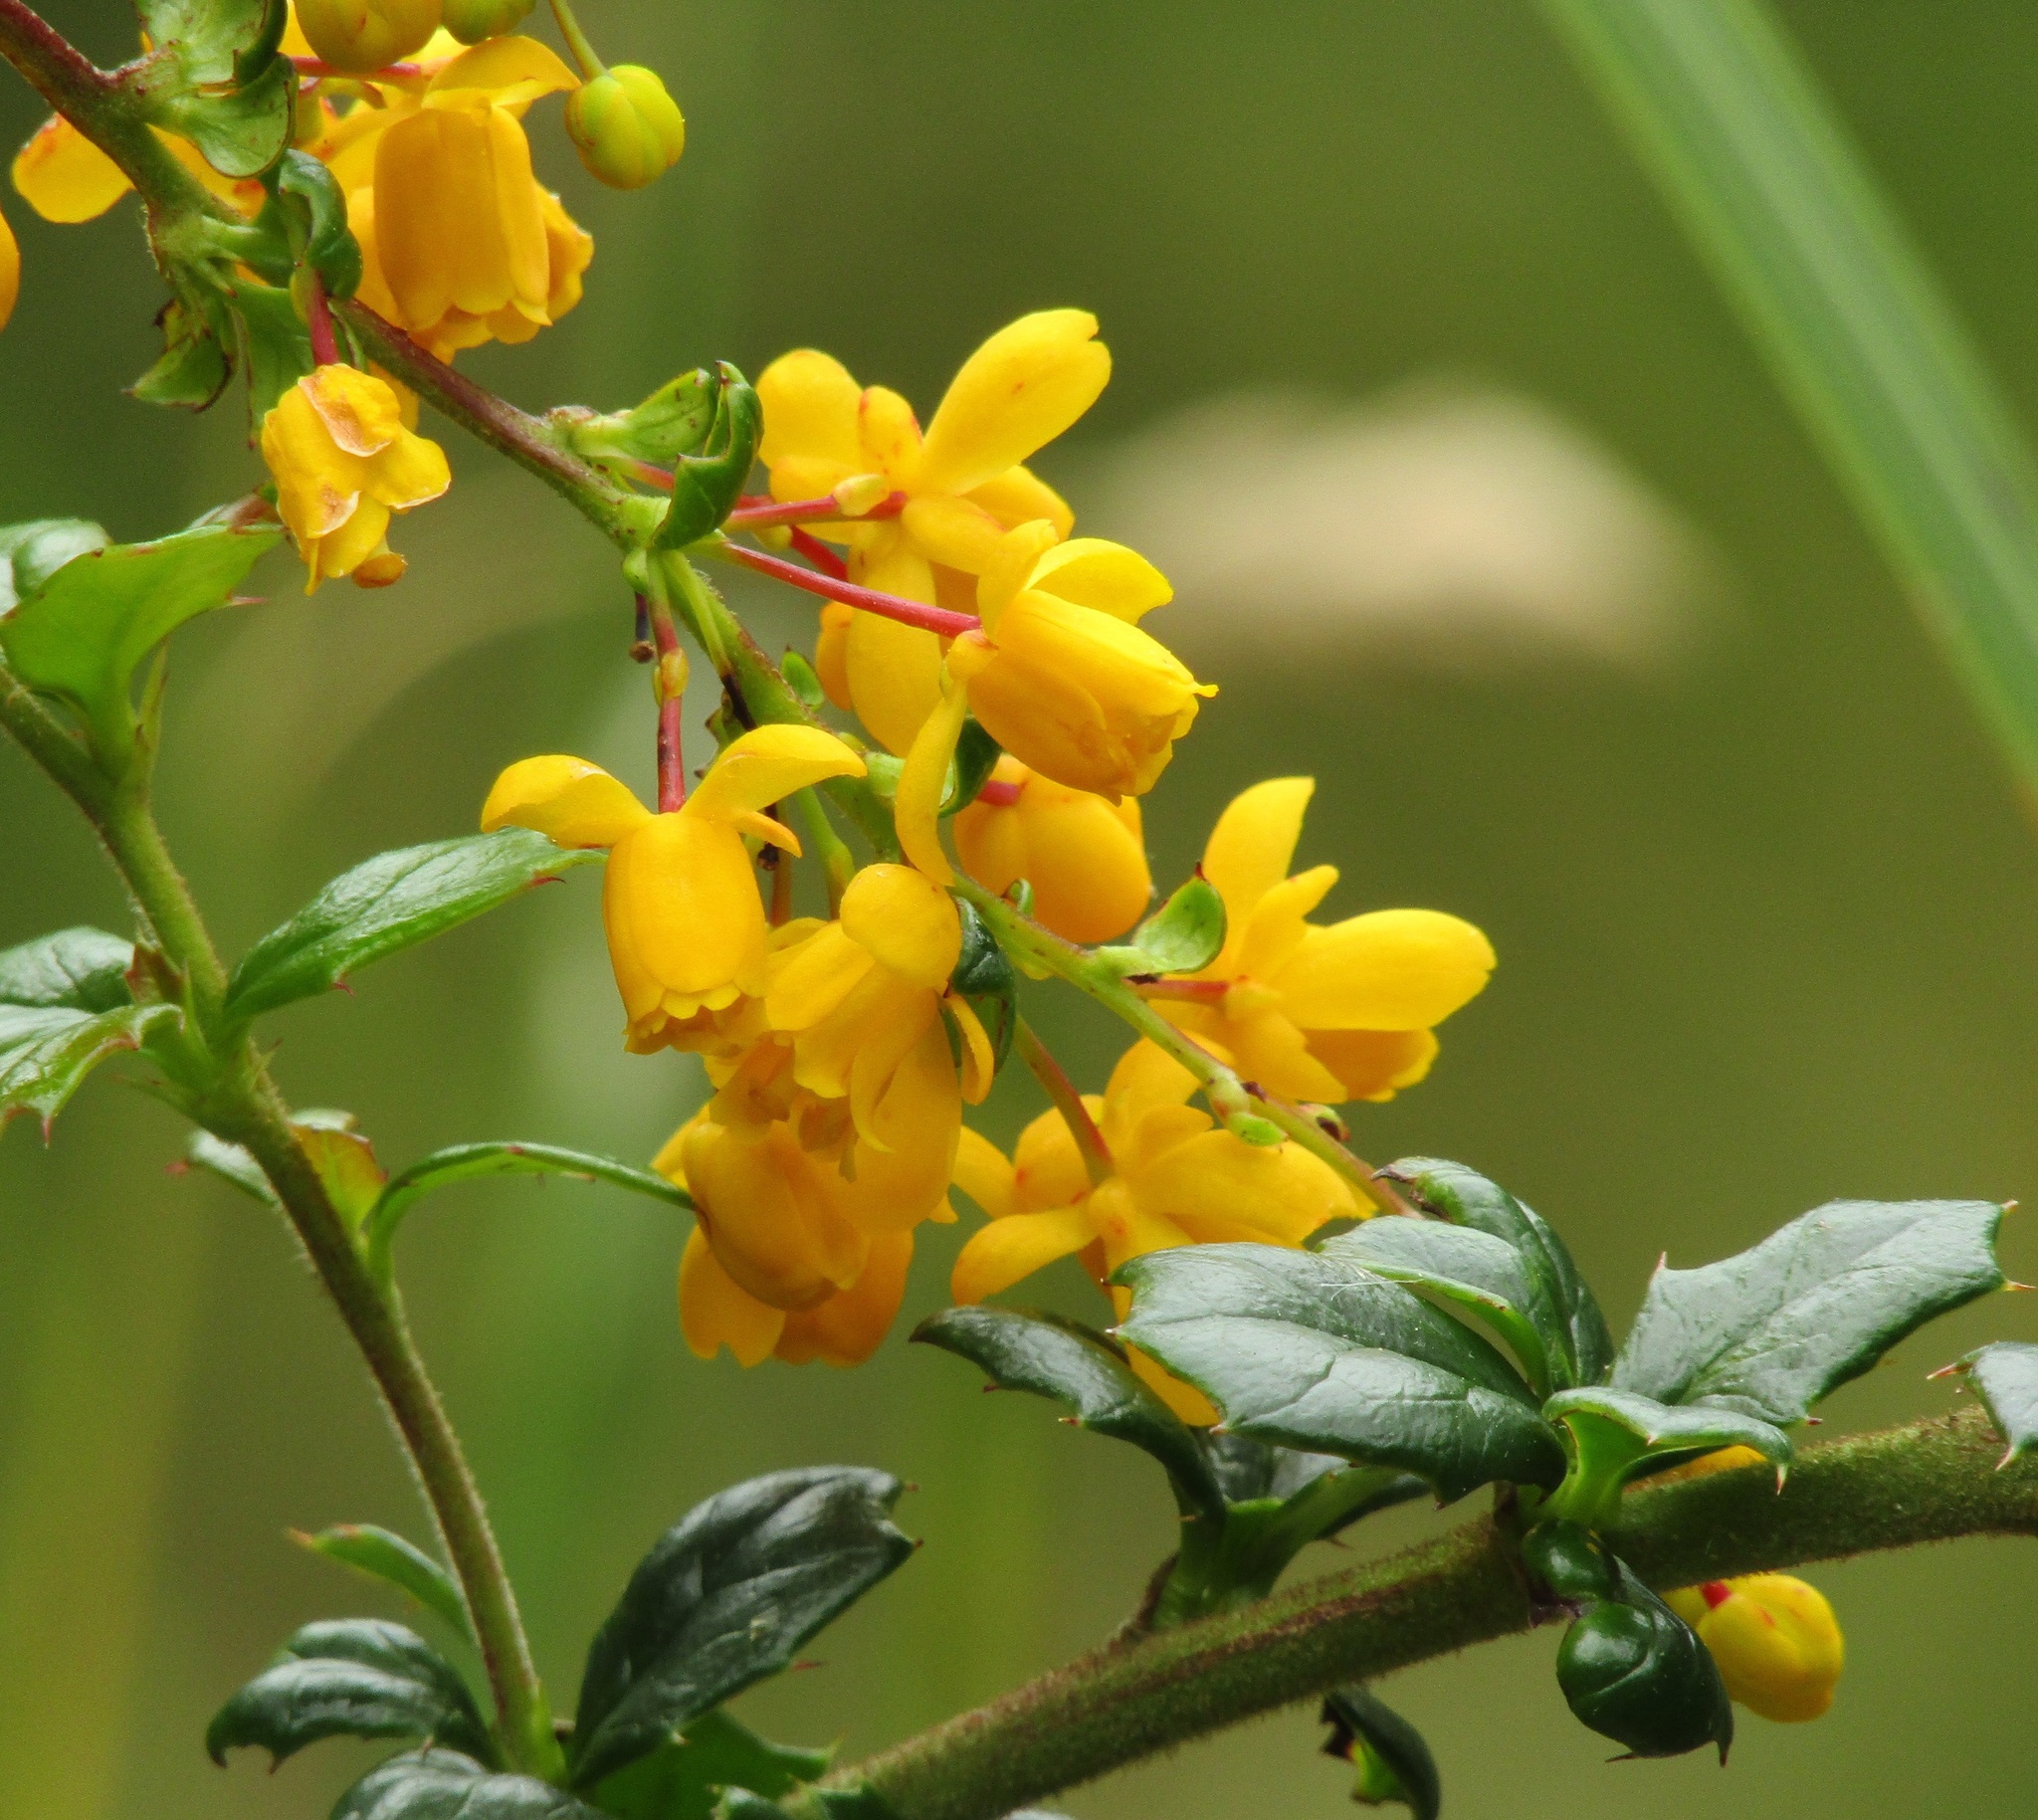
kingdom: Plantae
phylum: Tracheophyta
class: Magnoliopsida
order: Ranunculales
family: Berberidaceae
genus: Berberis
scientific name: Berberis darwinii
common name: Darwin's barberry
